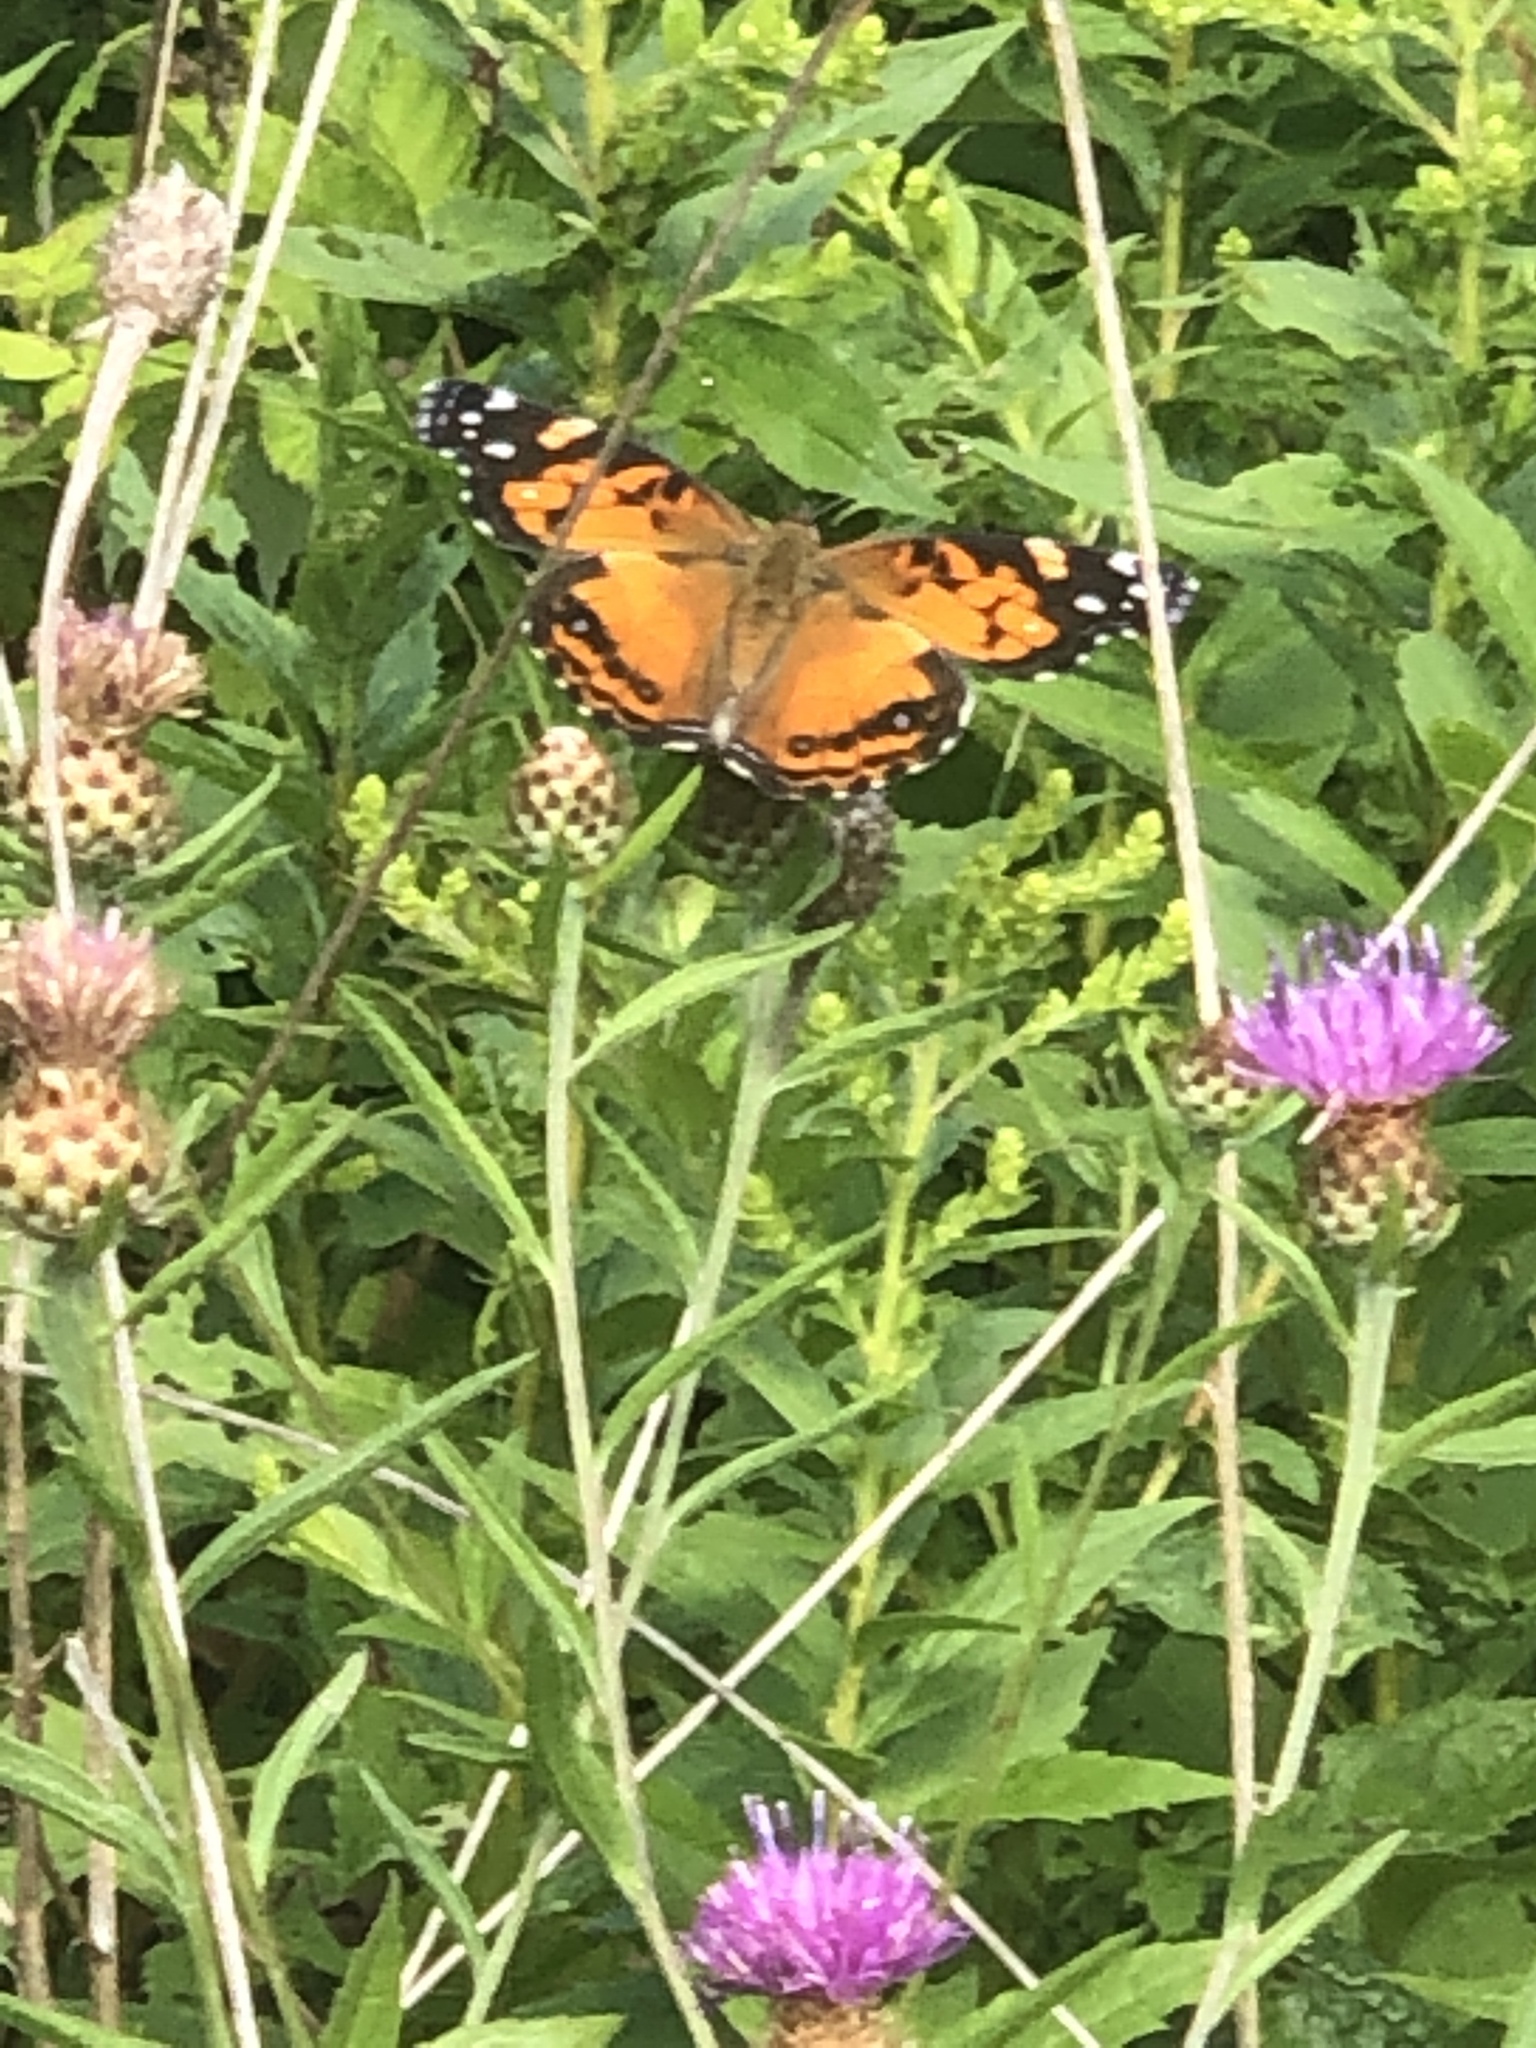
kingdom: Animalia
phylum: Arthropoda
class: Insecta
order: Lepidoptera
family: Nymphalidae
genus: Vanessa
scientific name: Vanessa virginiensis
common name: American lady
